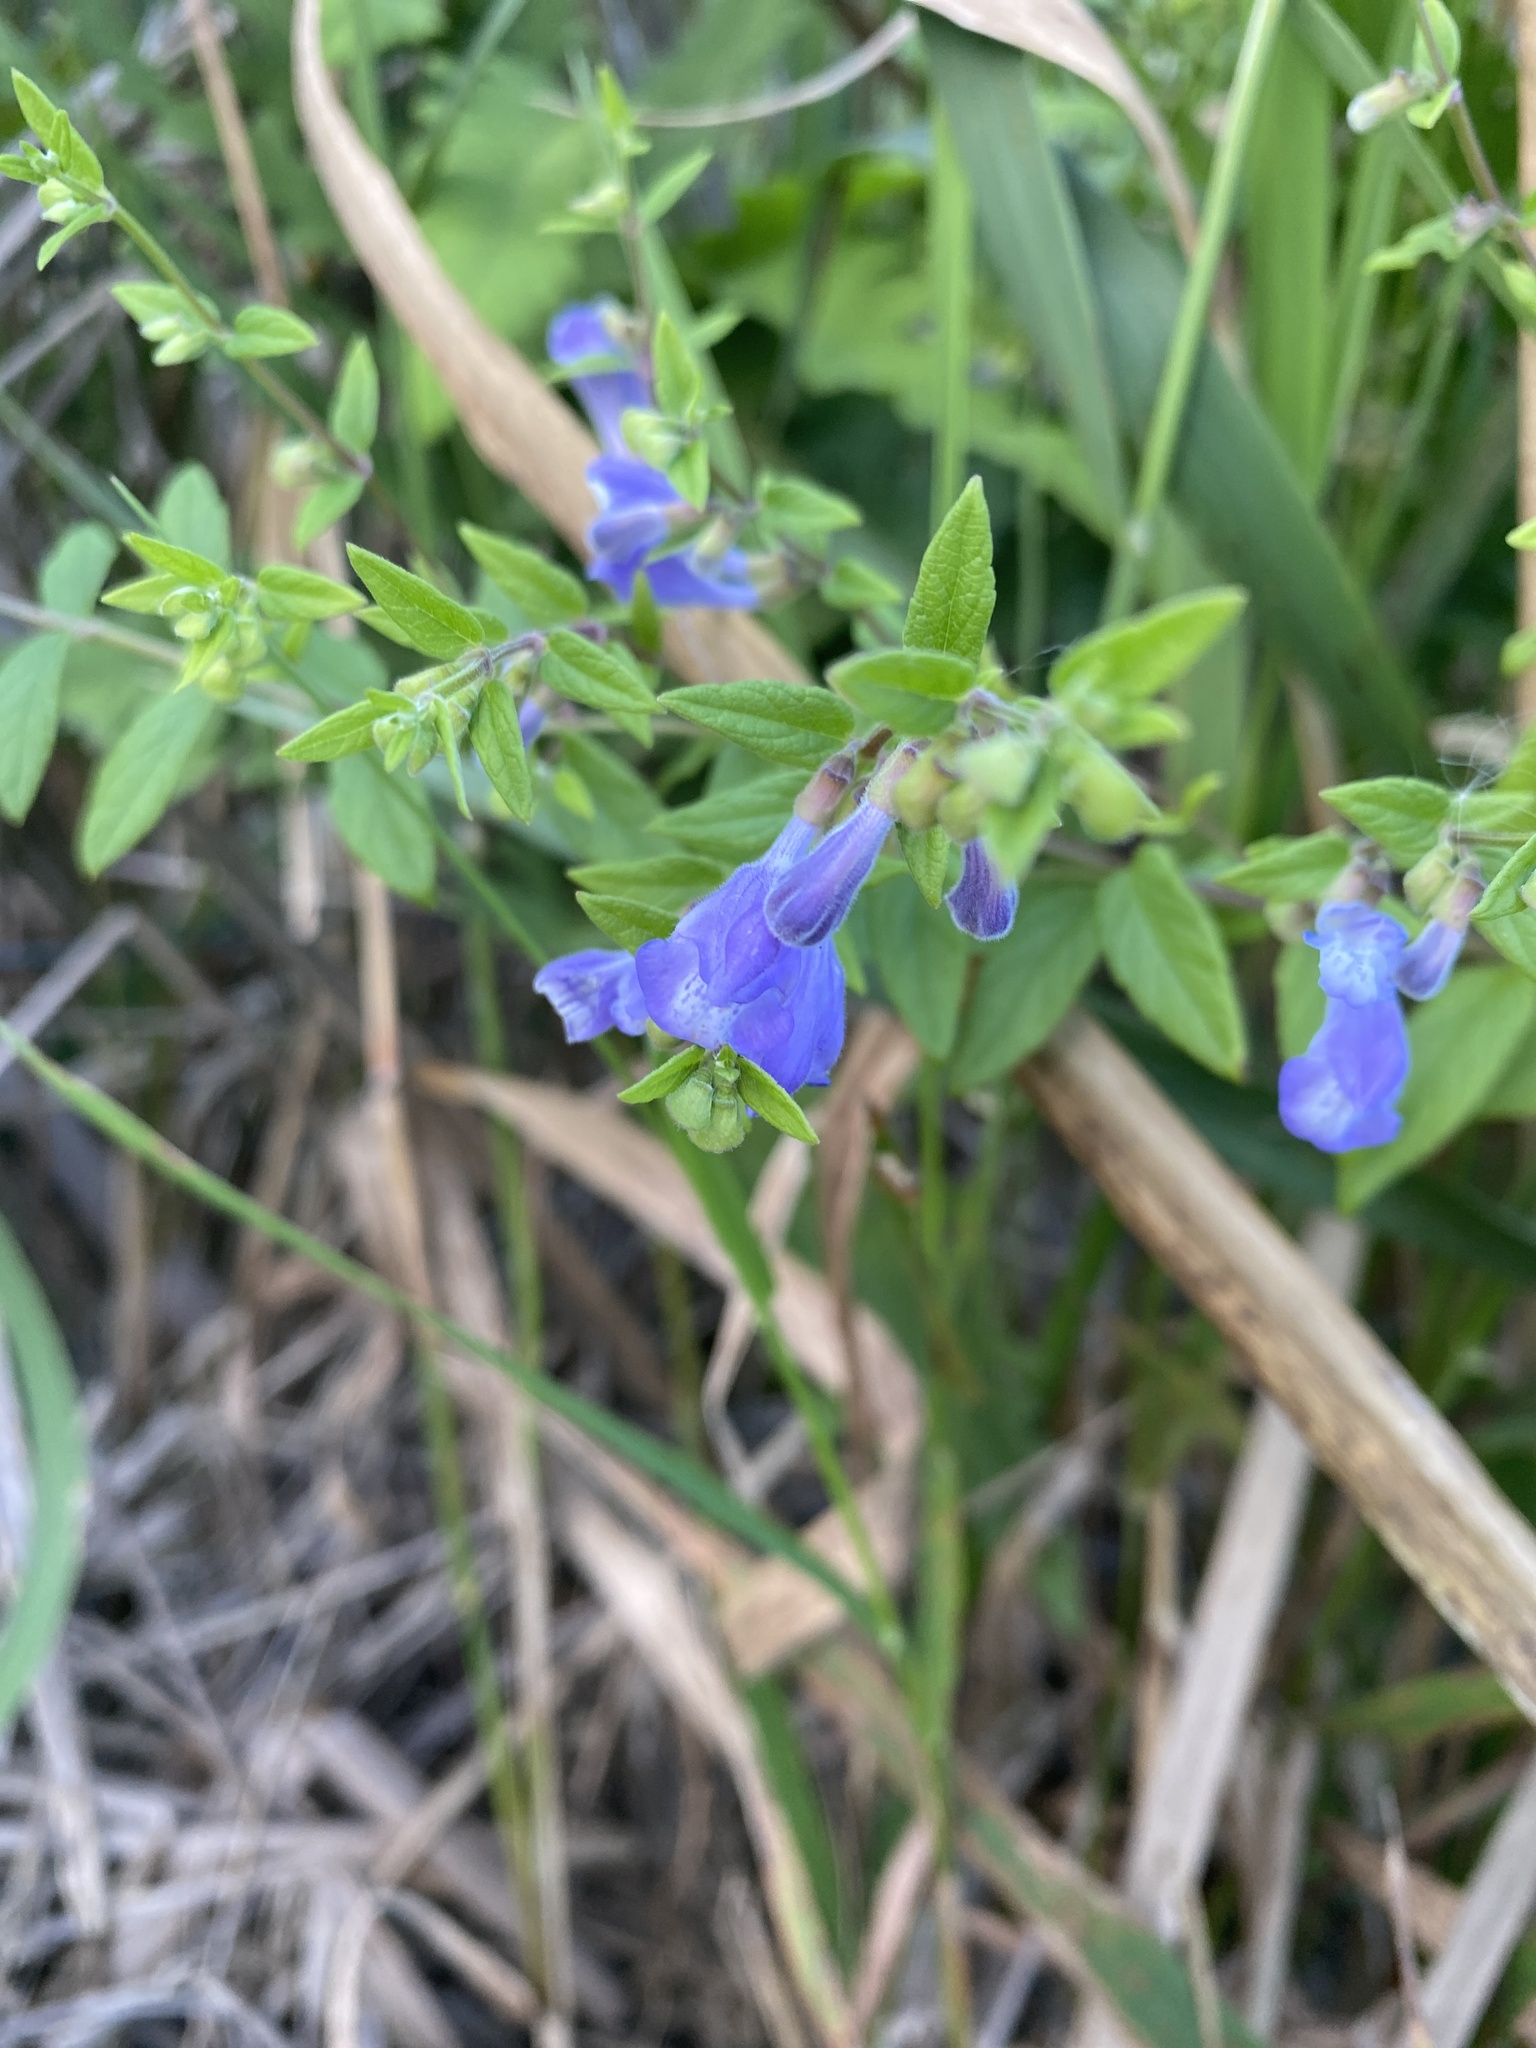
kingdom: Plantae
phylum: Tracheophyta
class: Magnoliopsida
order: Lamiales
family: Lamiaceae
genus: Scutellaria
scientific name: Scutellaria galericulata
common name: Skullcap
